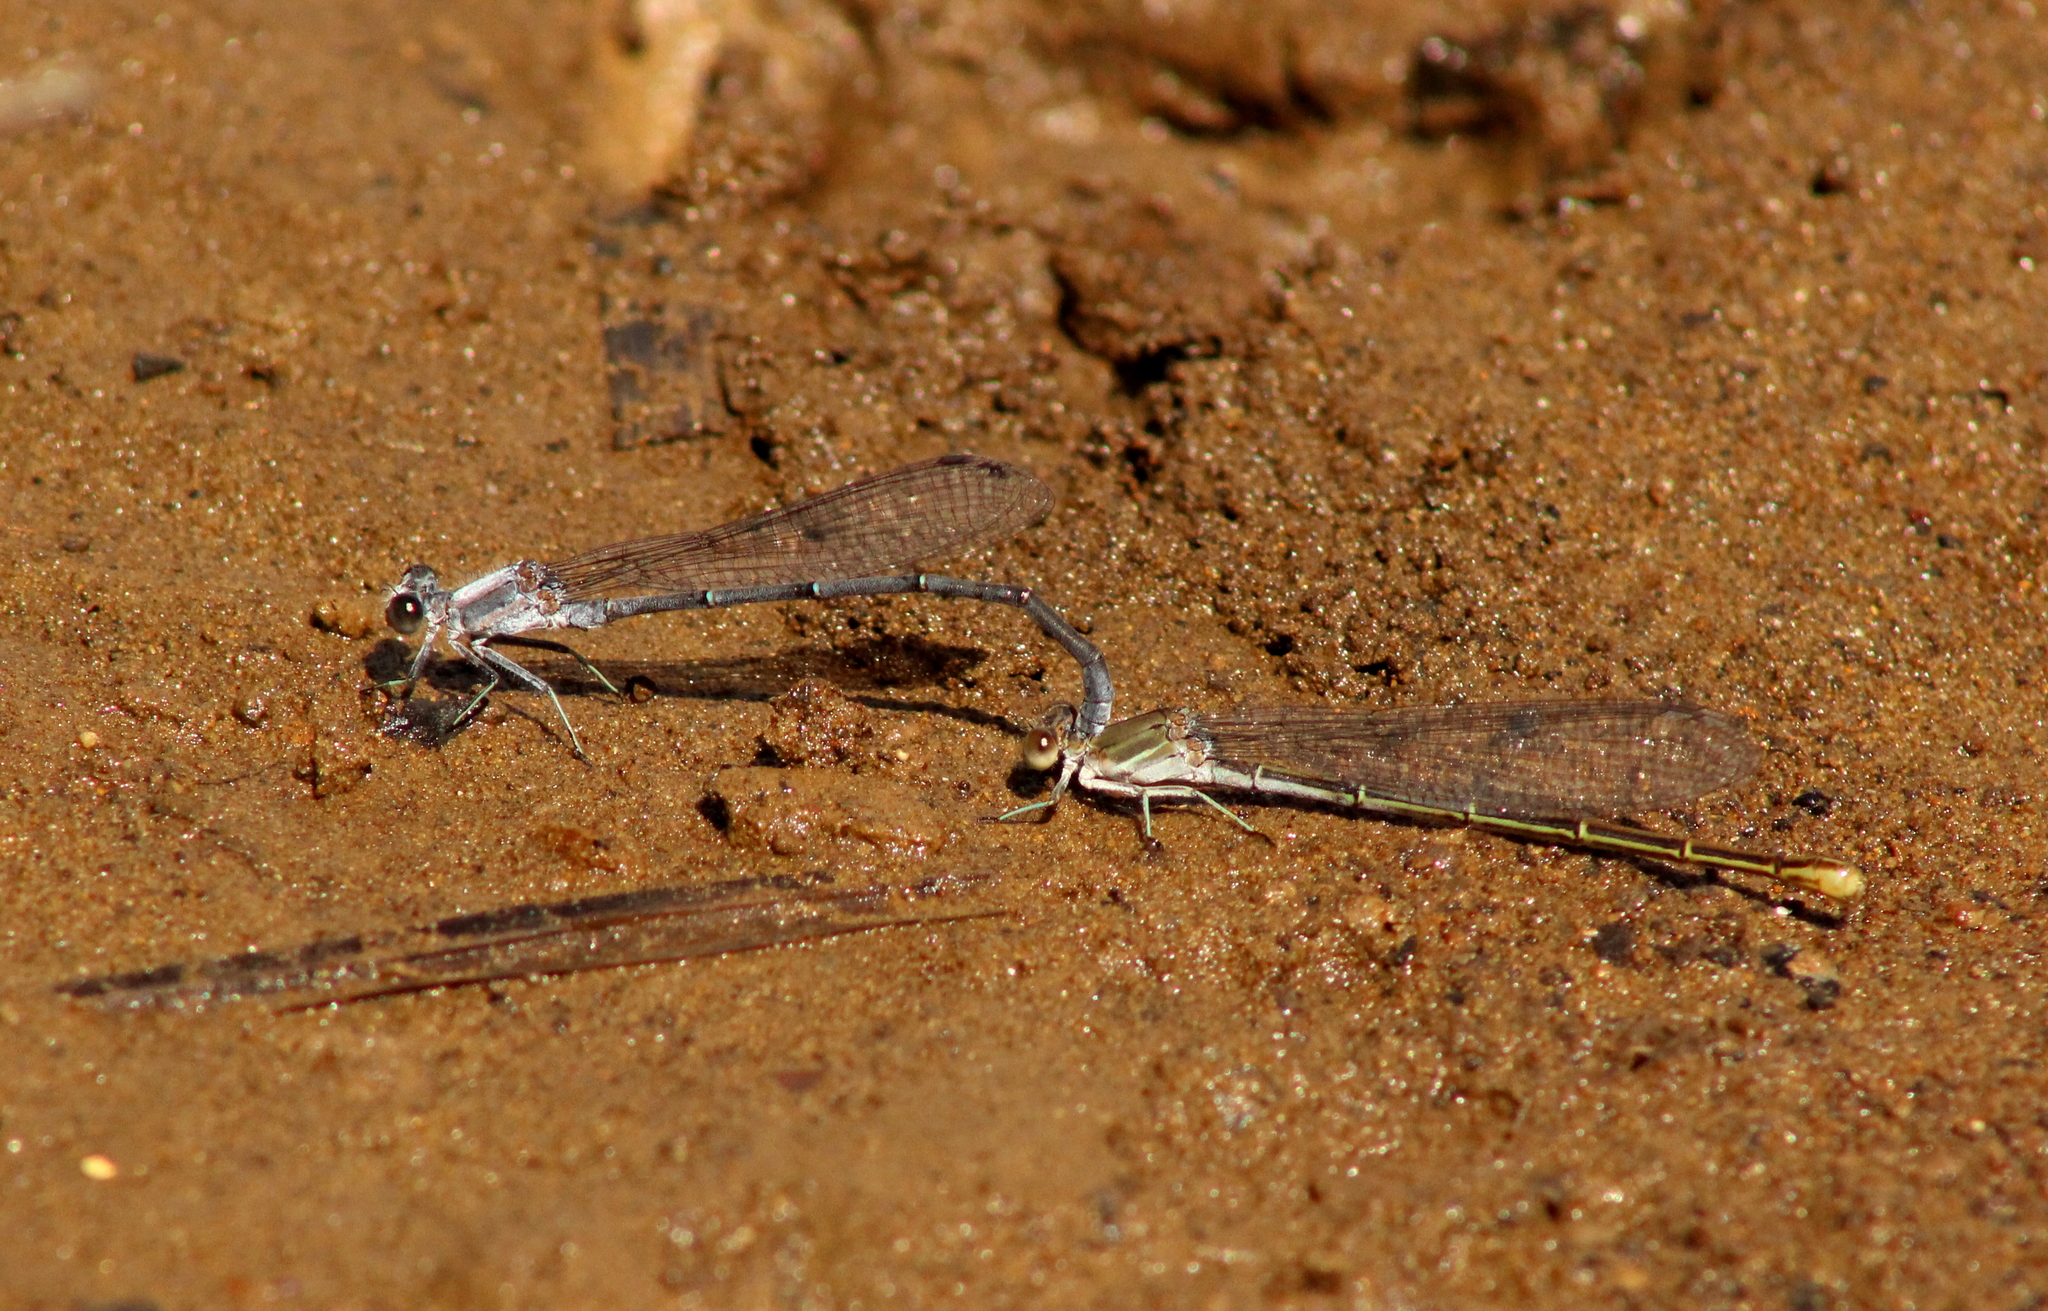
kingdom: Animalia
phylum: Arthropoda
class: Insecta
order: Odonata
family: Coenagrionidae
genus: Argia
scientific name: Argia moesta
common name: Powdered dancer
